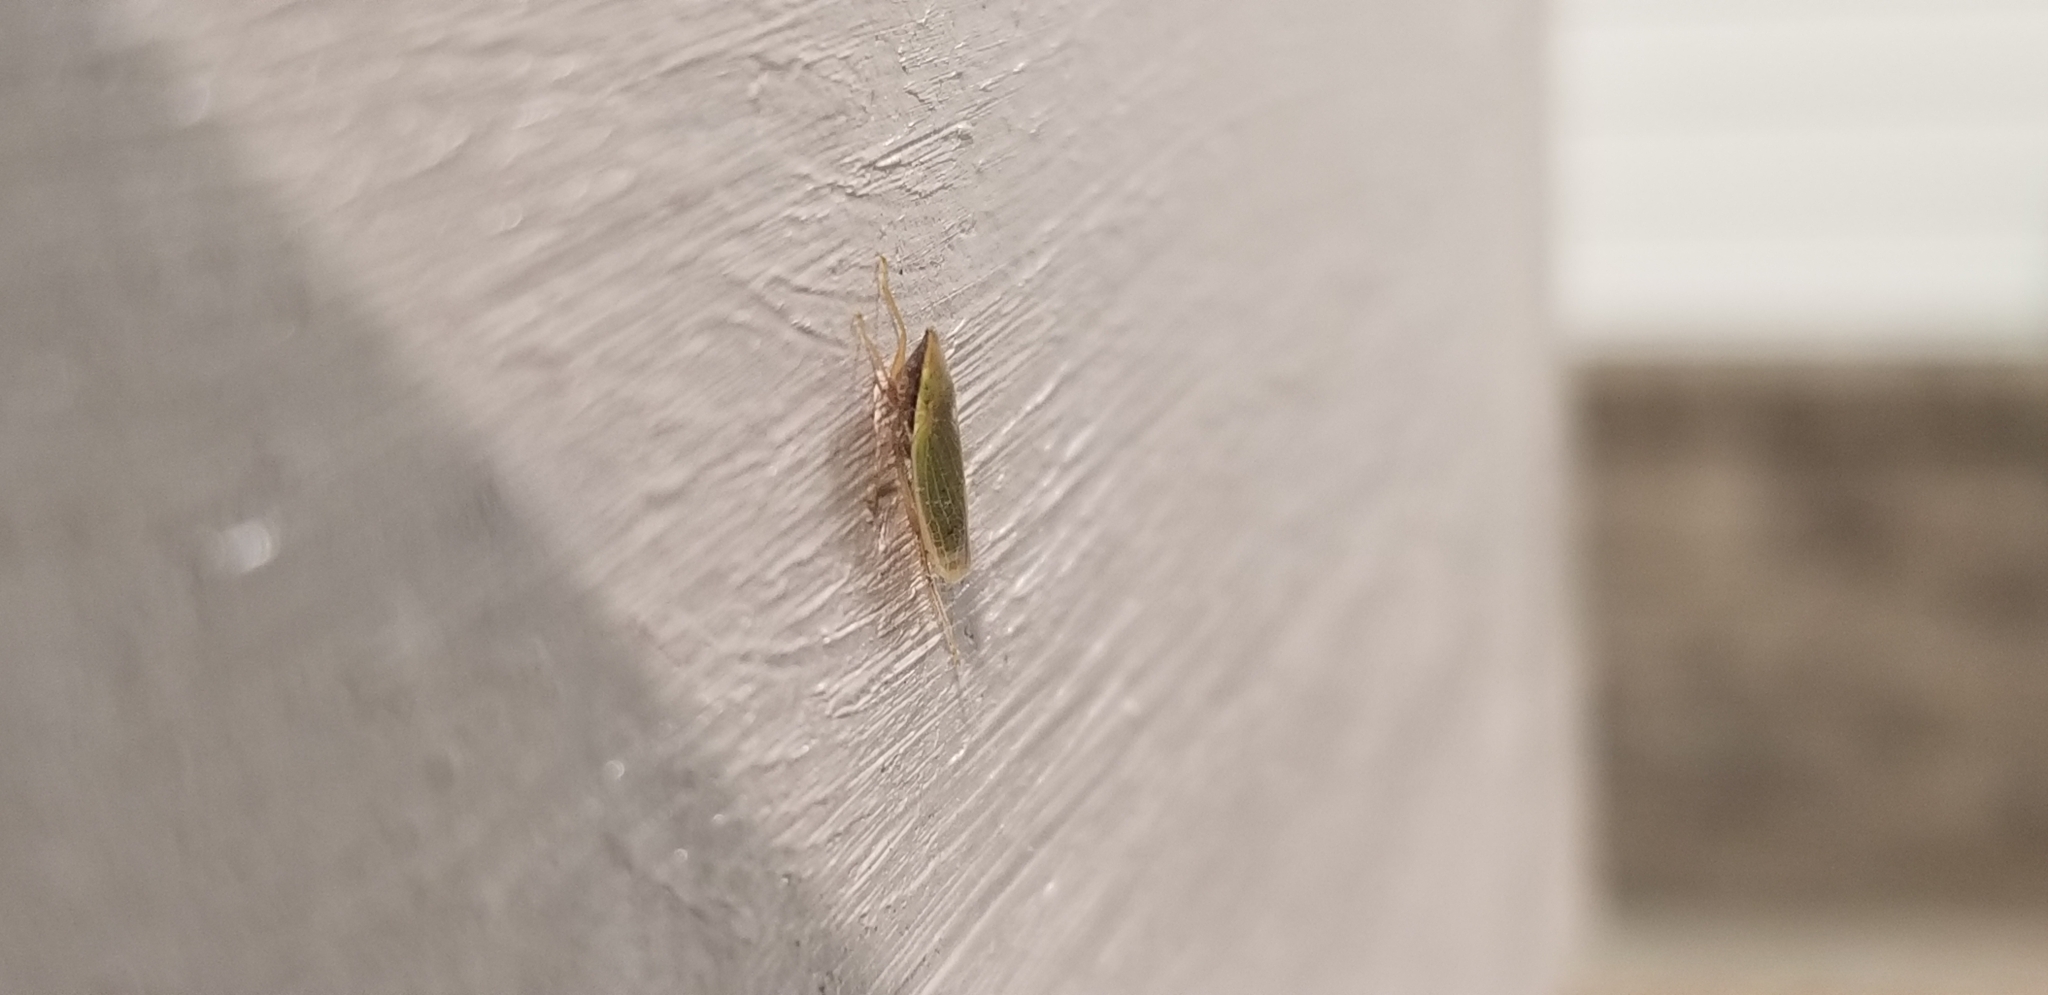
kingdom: Animalia
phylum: Arthropoda
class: Insecta
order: Hemiptera
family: Cicadellidae
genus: Draeculacephala
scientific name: Draeculacephala antica
